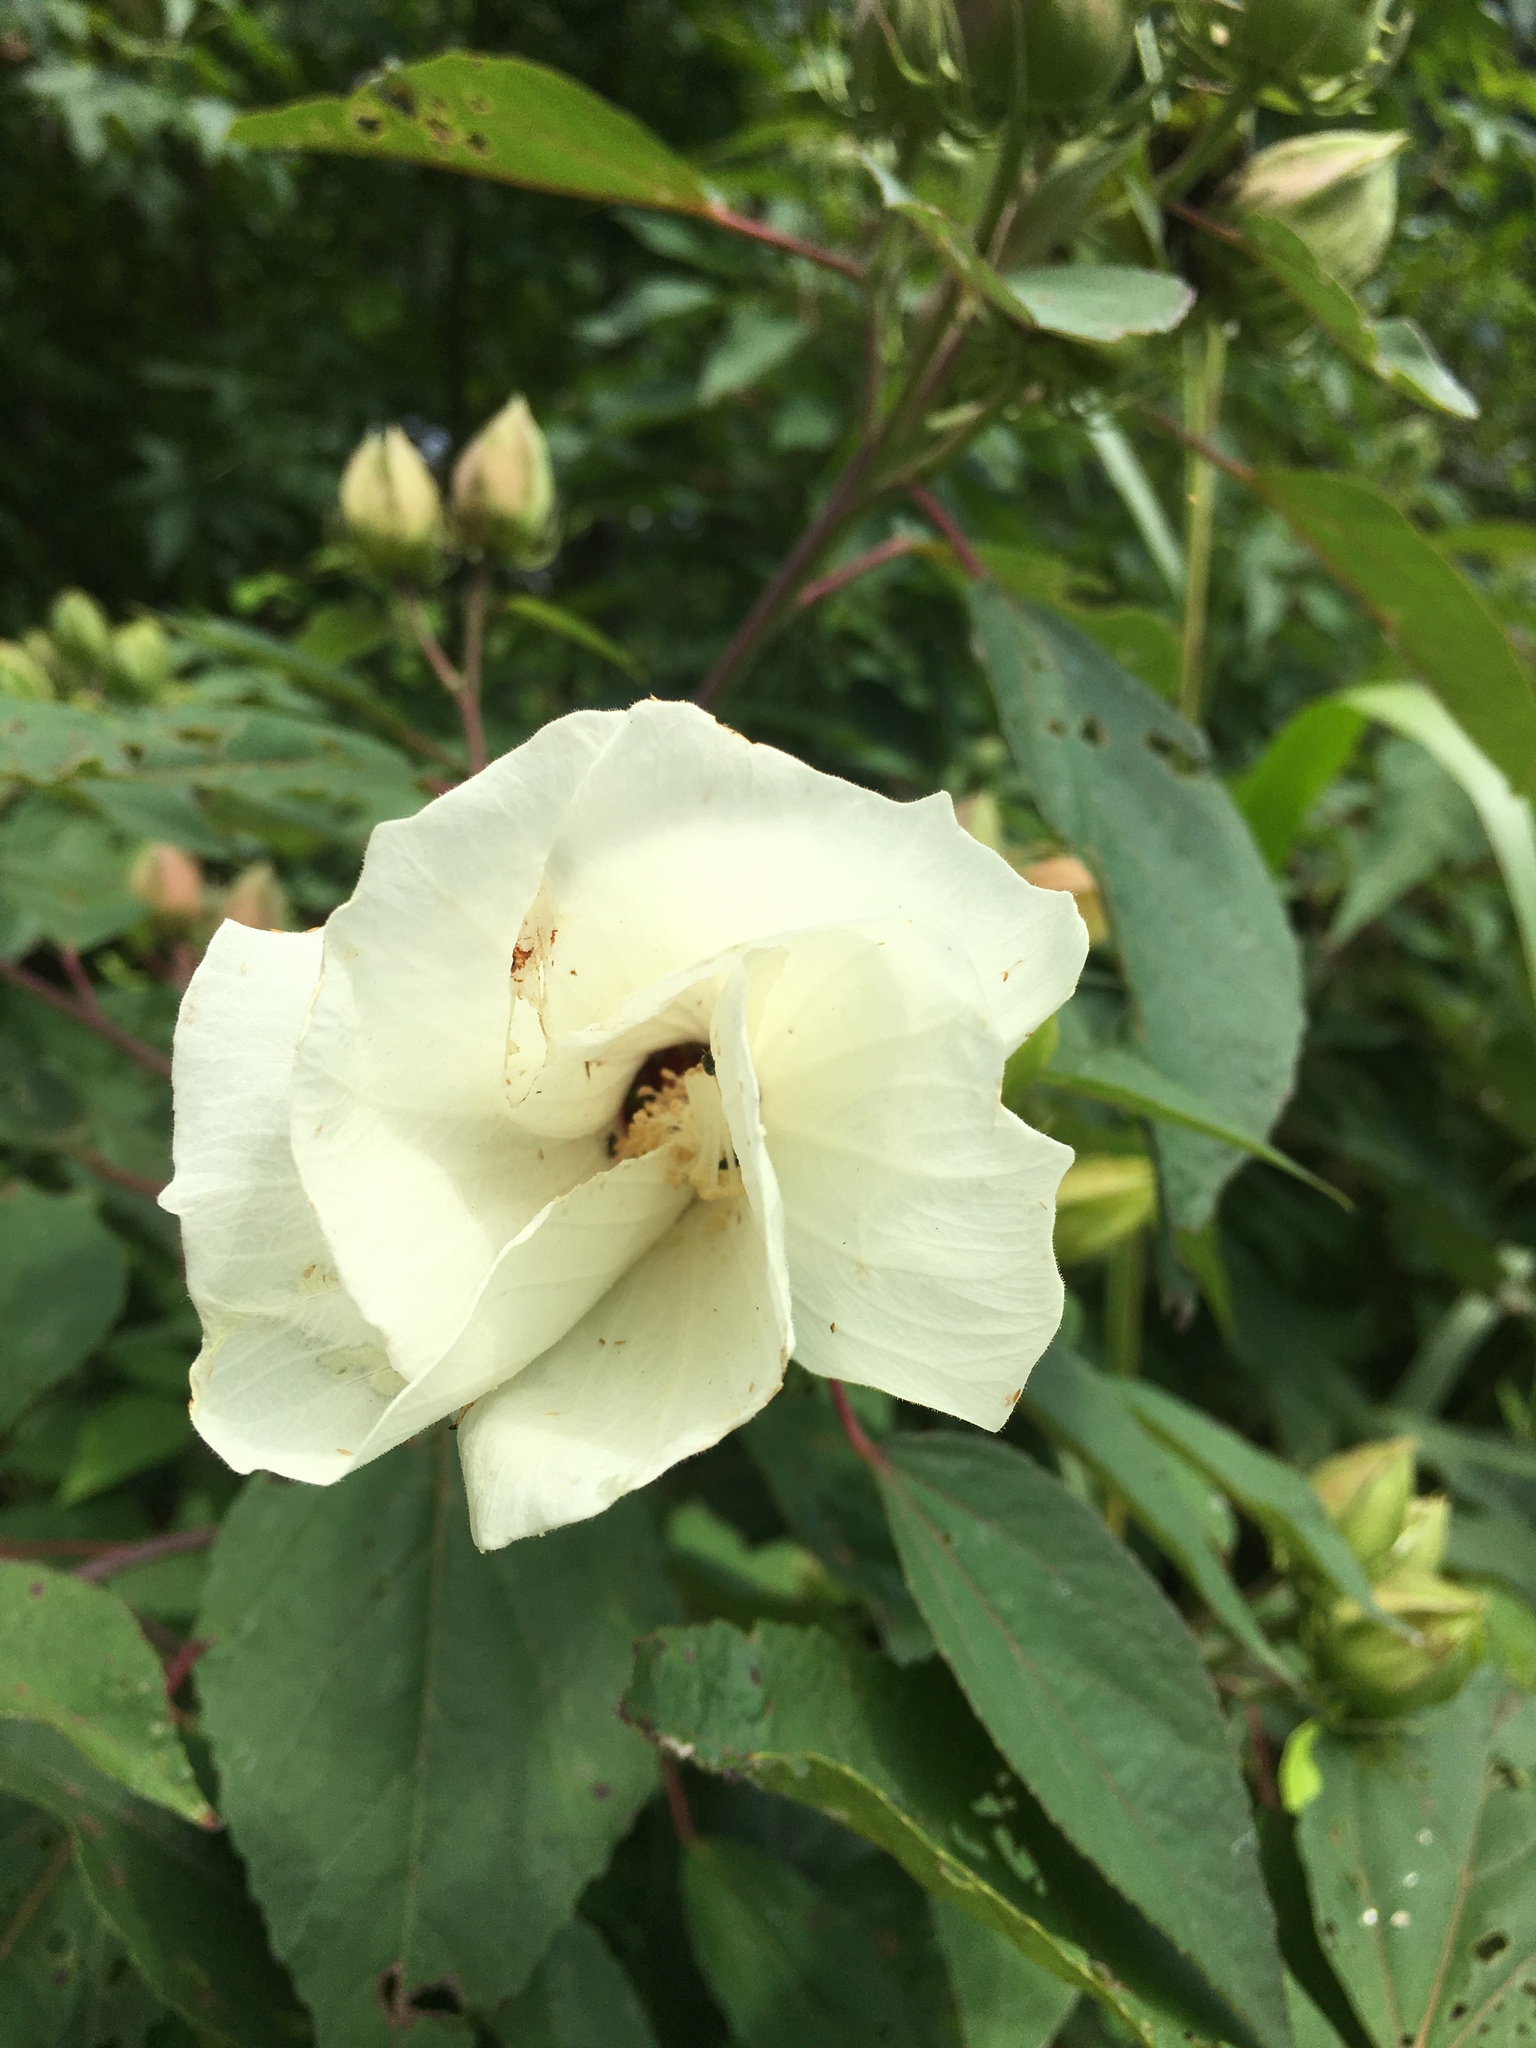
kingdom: Plantae
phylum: Tracheophyta
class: Magnoliopsida
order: Malvales
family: Malvaceae
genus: Hibiscus
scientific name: Hibiscus moscheutos
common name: Common rose-mallow
